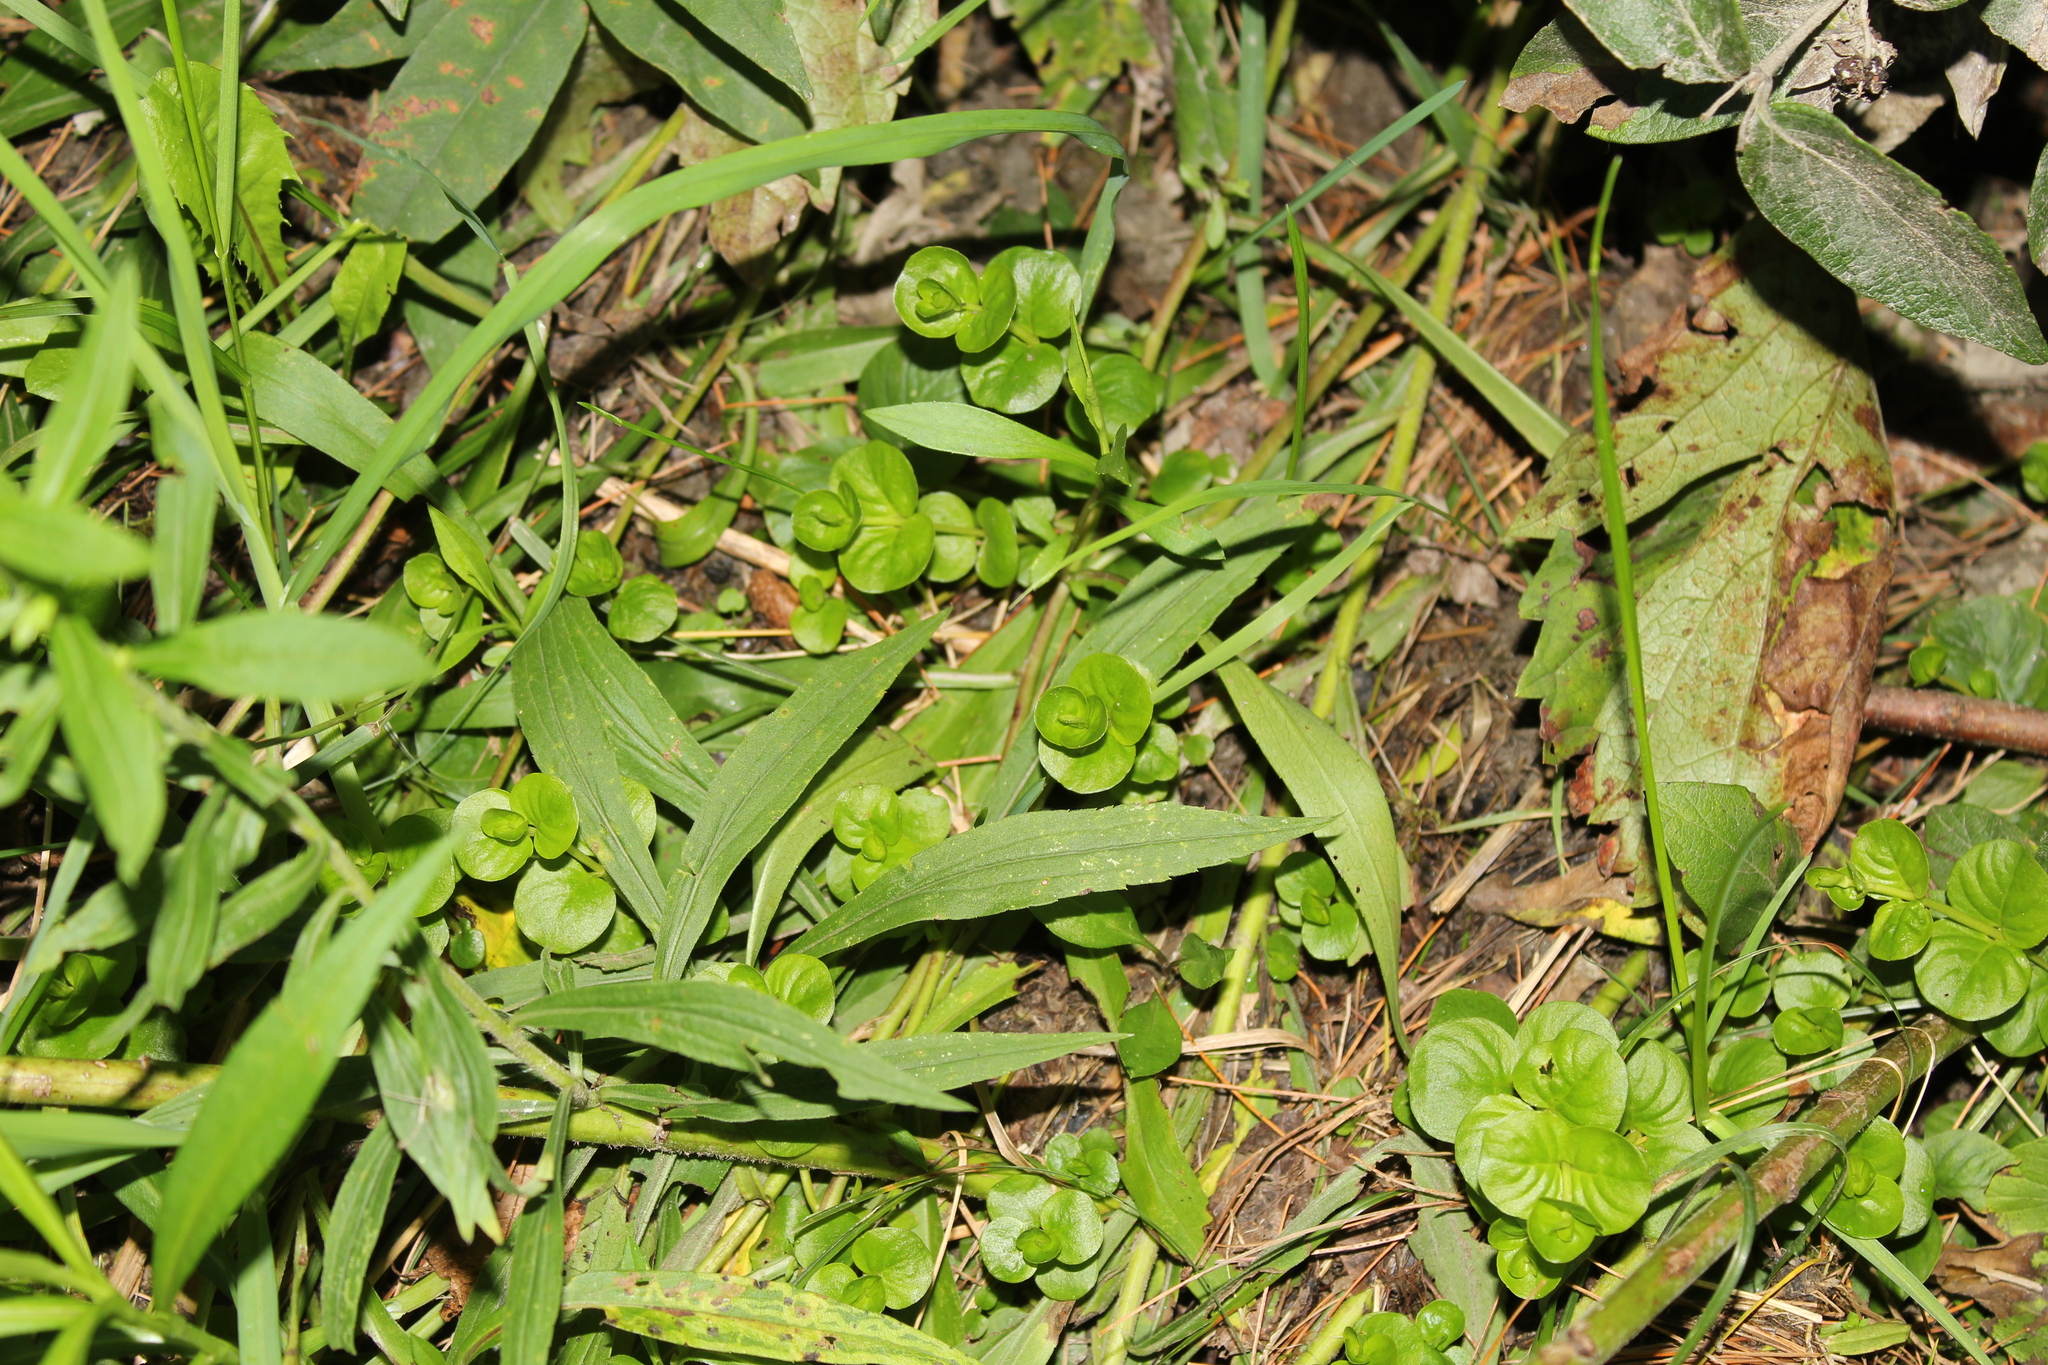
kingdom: Plantae
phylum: Tracheophyta
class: Magnoliopsida
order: Ericales
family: Primulaceae
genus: Lysimachia
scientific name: Lysimachia nummularia
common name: Moneywort
